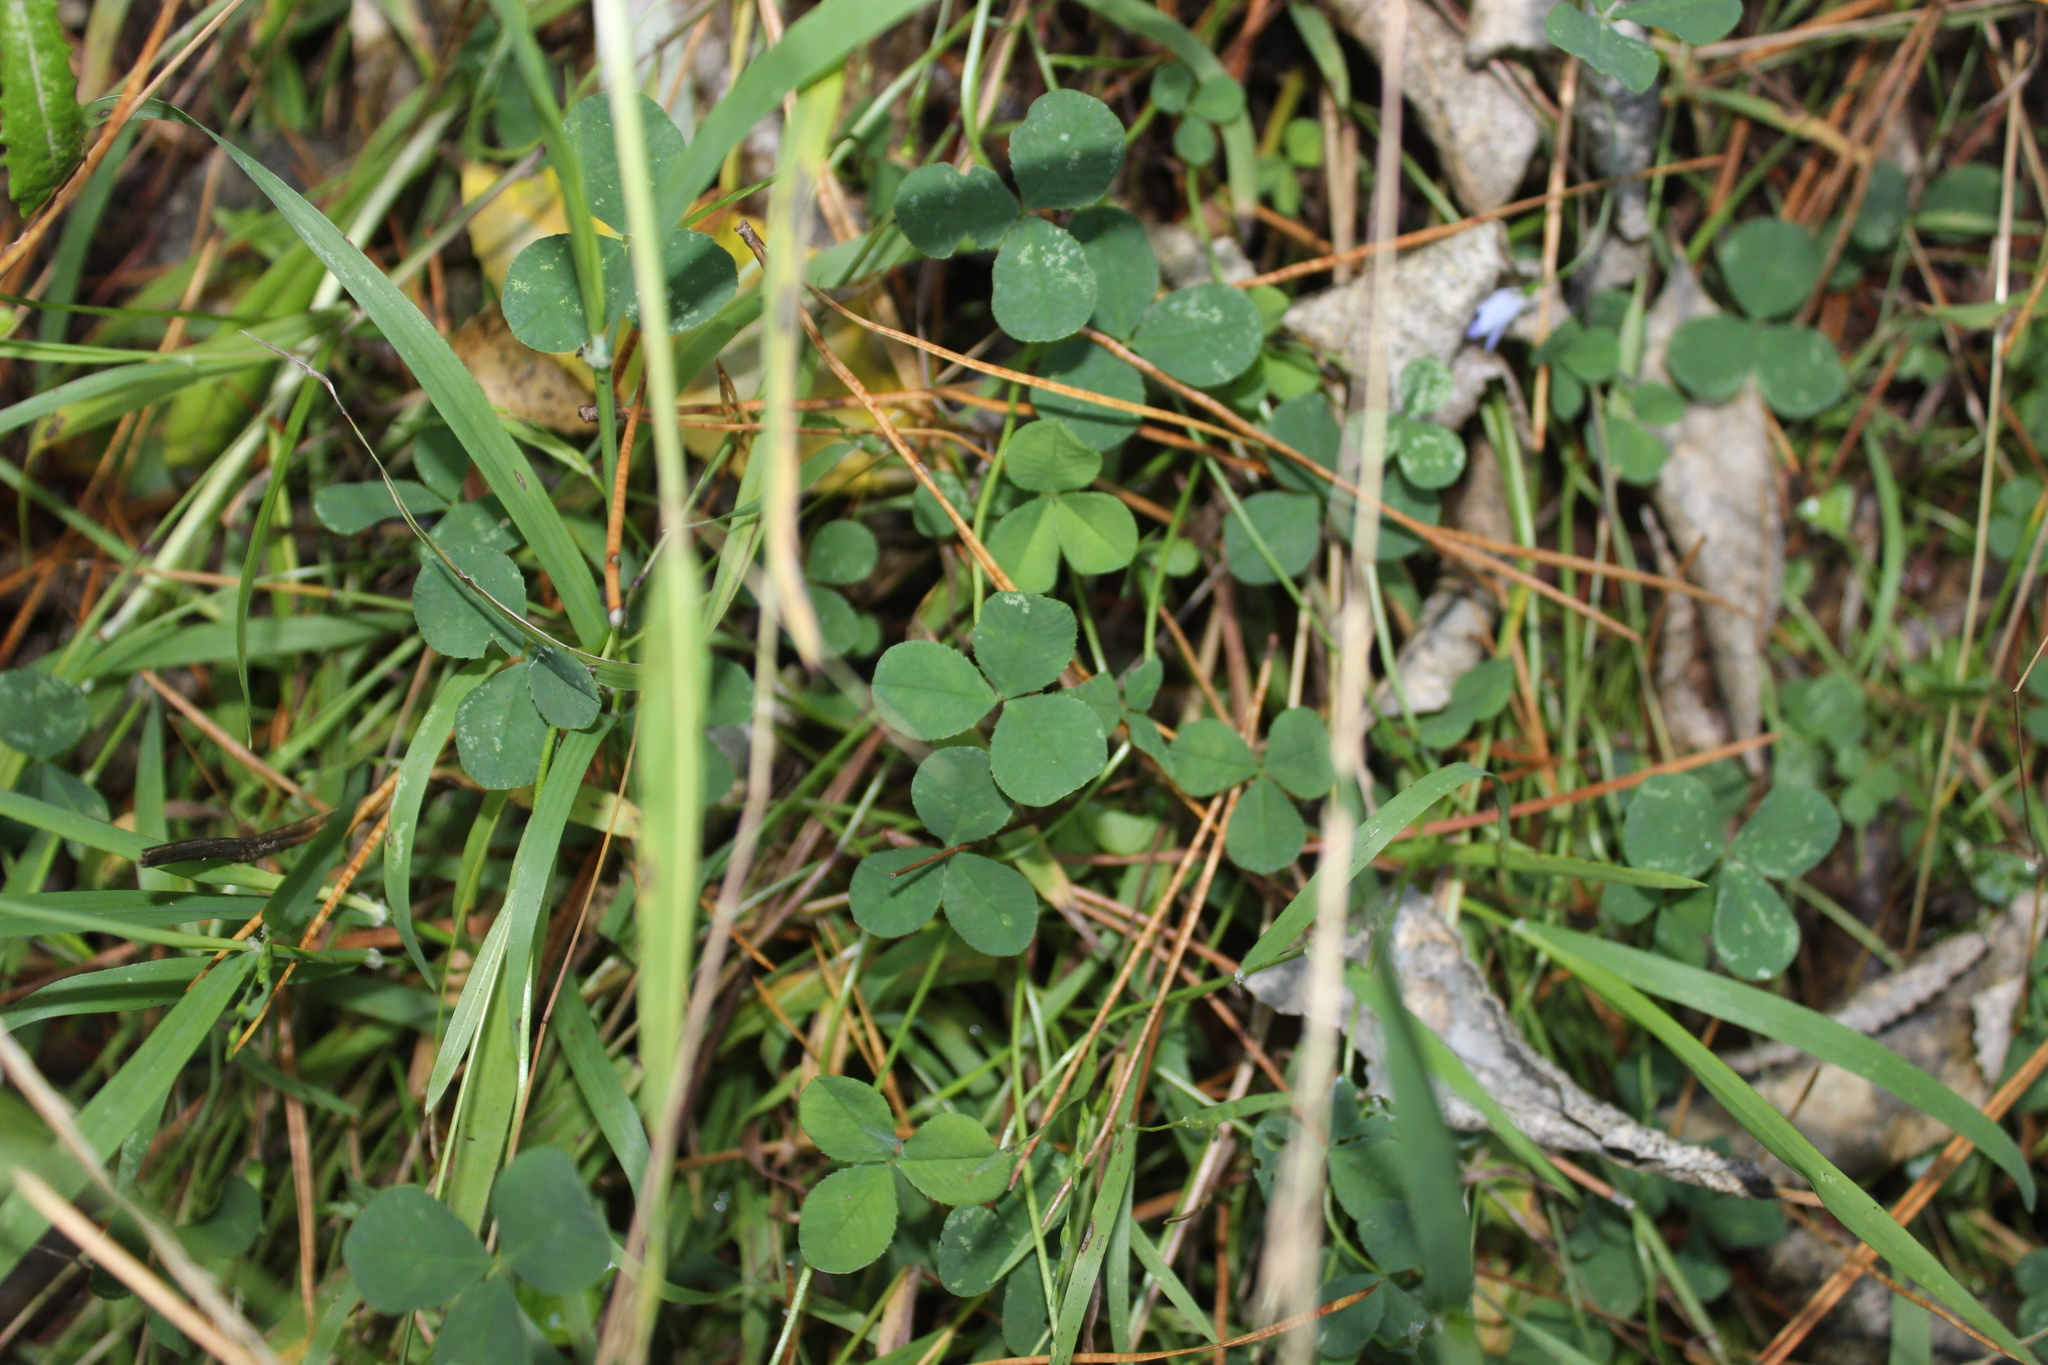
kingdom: Plantae
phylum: Tracheophyta
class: Magnoliopsida
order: Fabales
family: Fabaceae
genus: Trifolium
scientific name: Trifolium repens
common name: White clover
